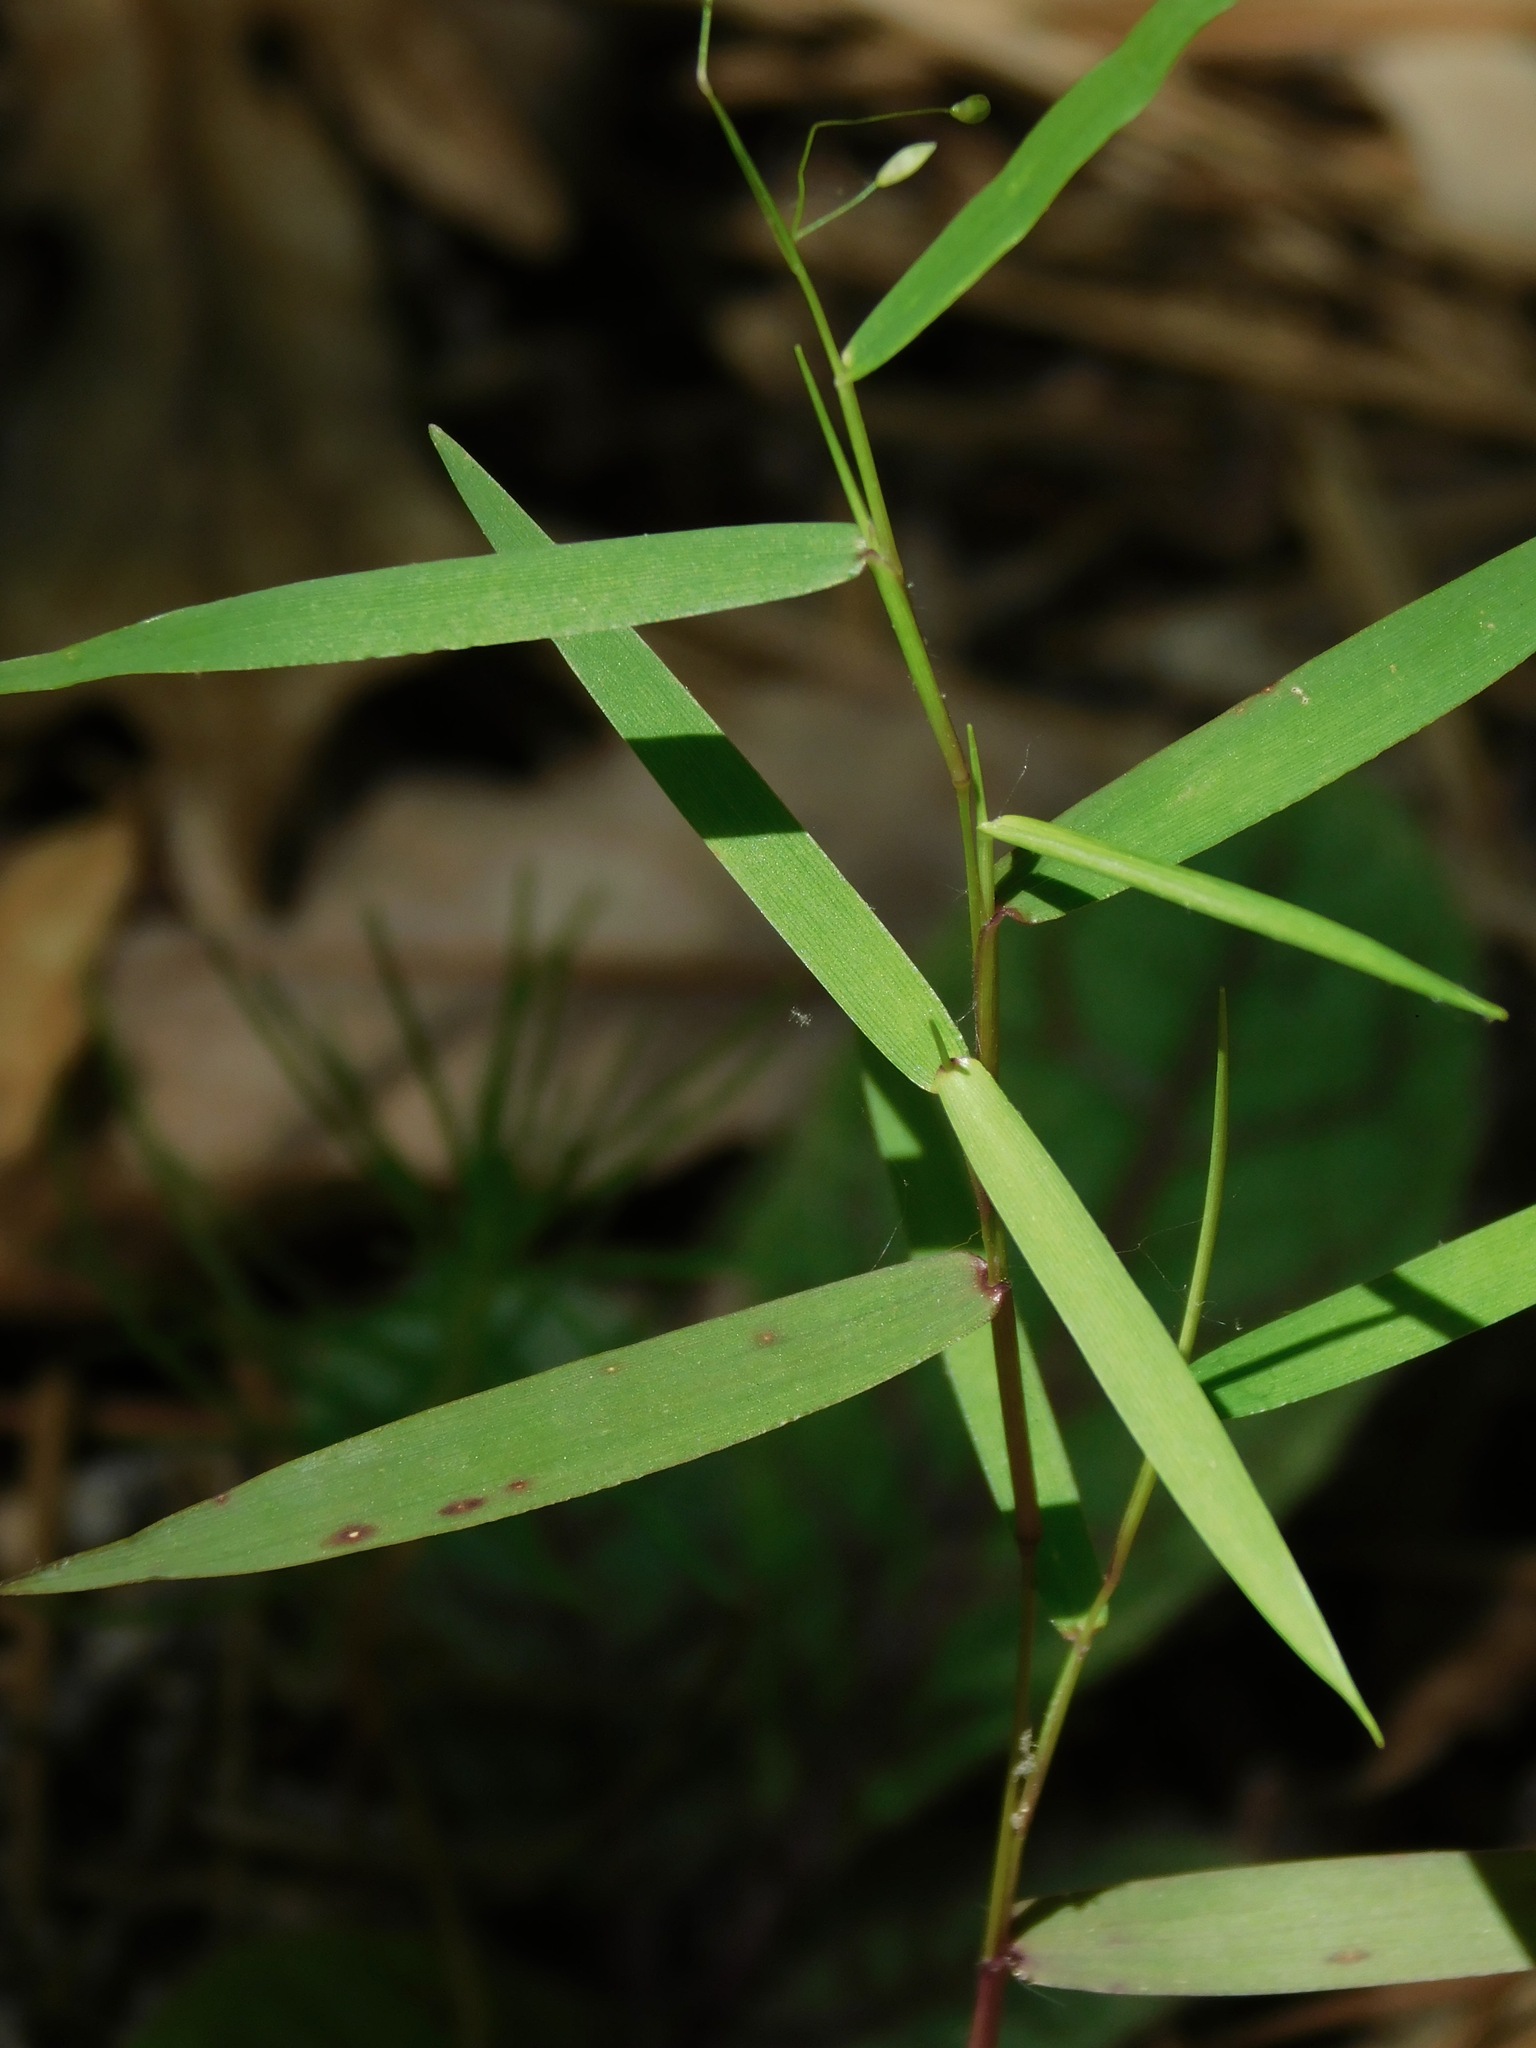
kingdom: Plantae
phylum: Tracheophyta
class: Liliopsida
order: Poales
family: Poaceae
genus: Dichanthelium
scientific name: Dichanthelium dichotomum
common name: Cypress panicgrass
